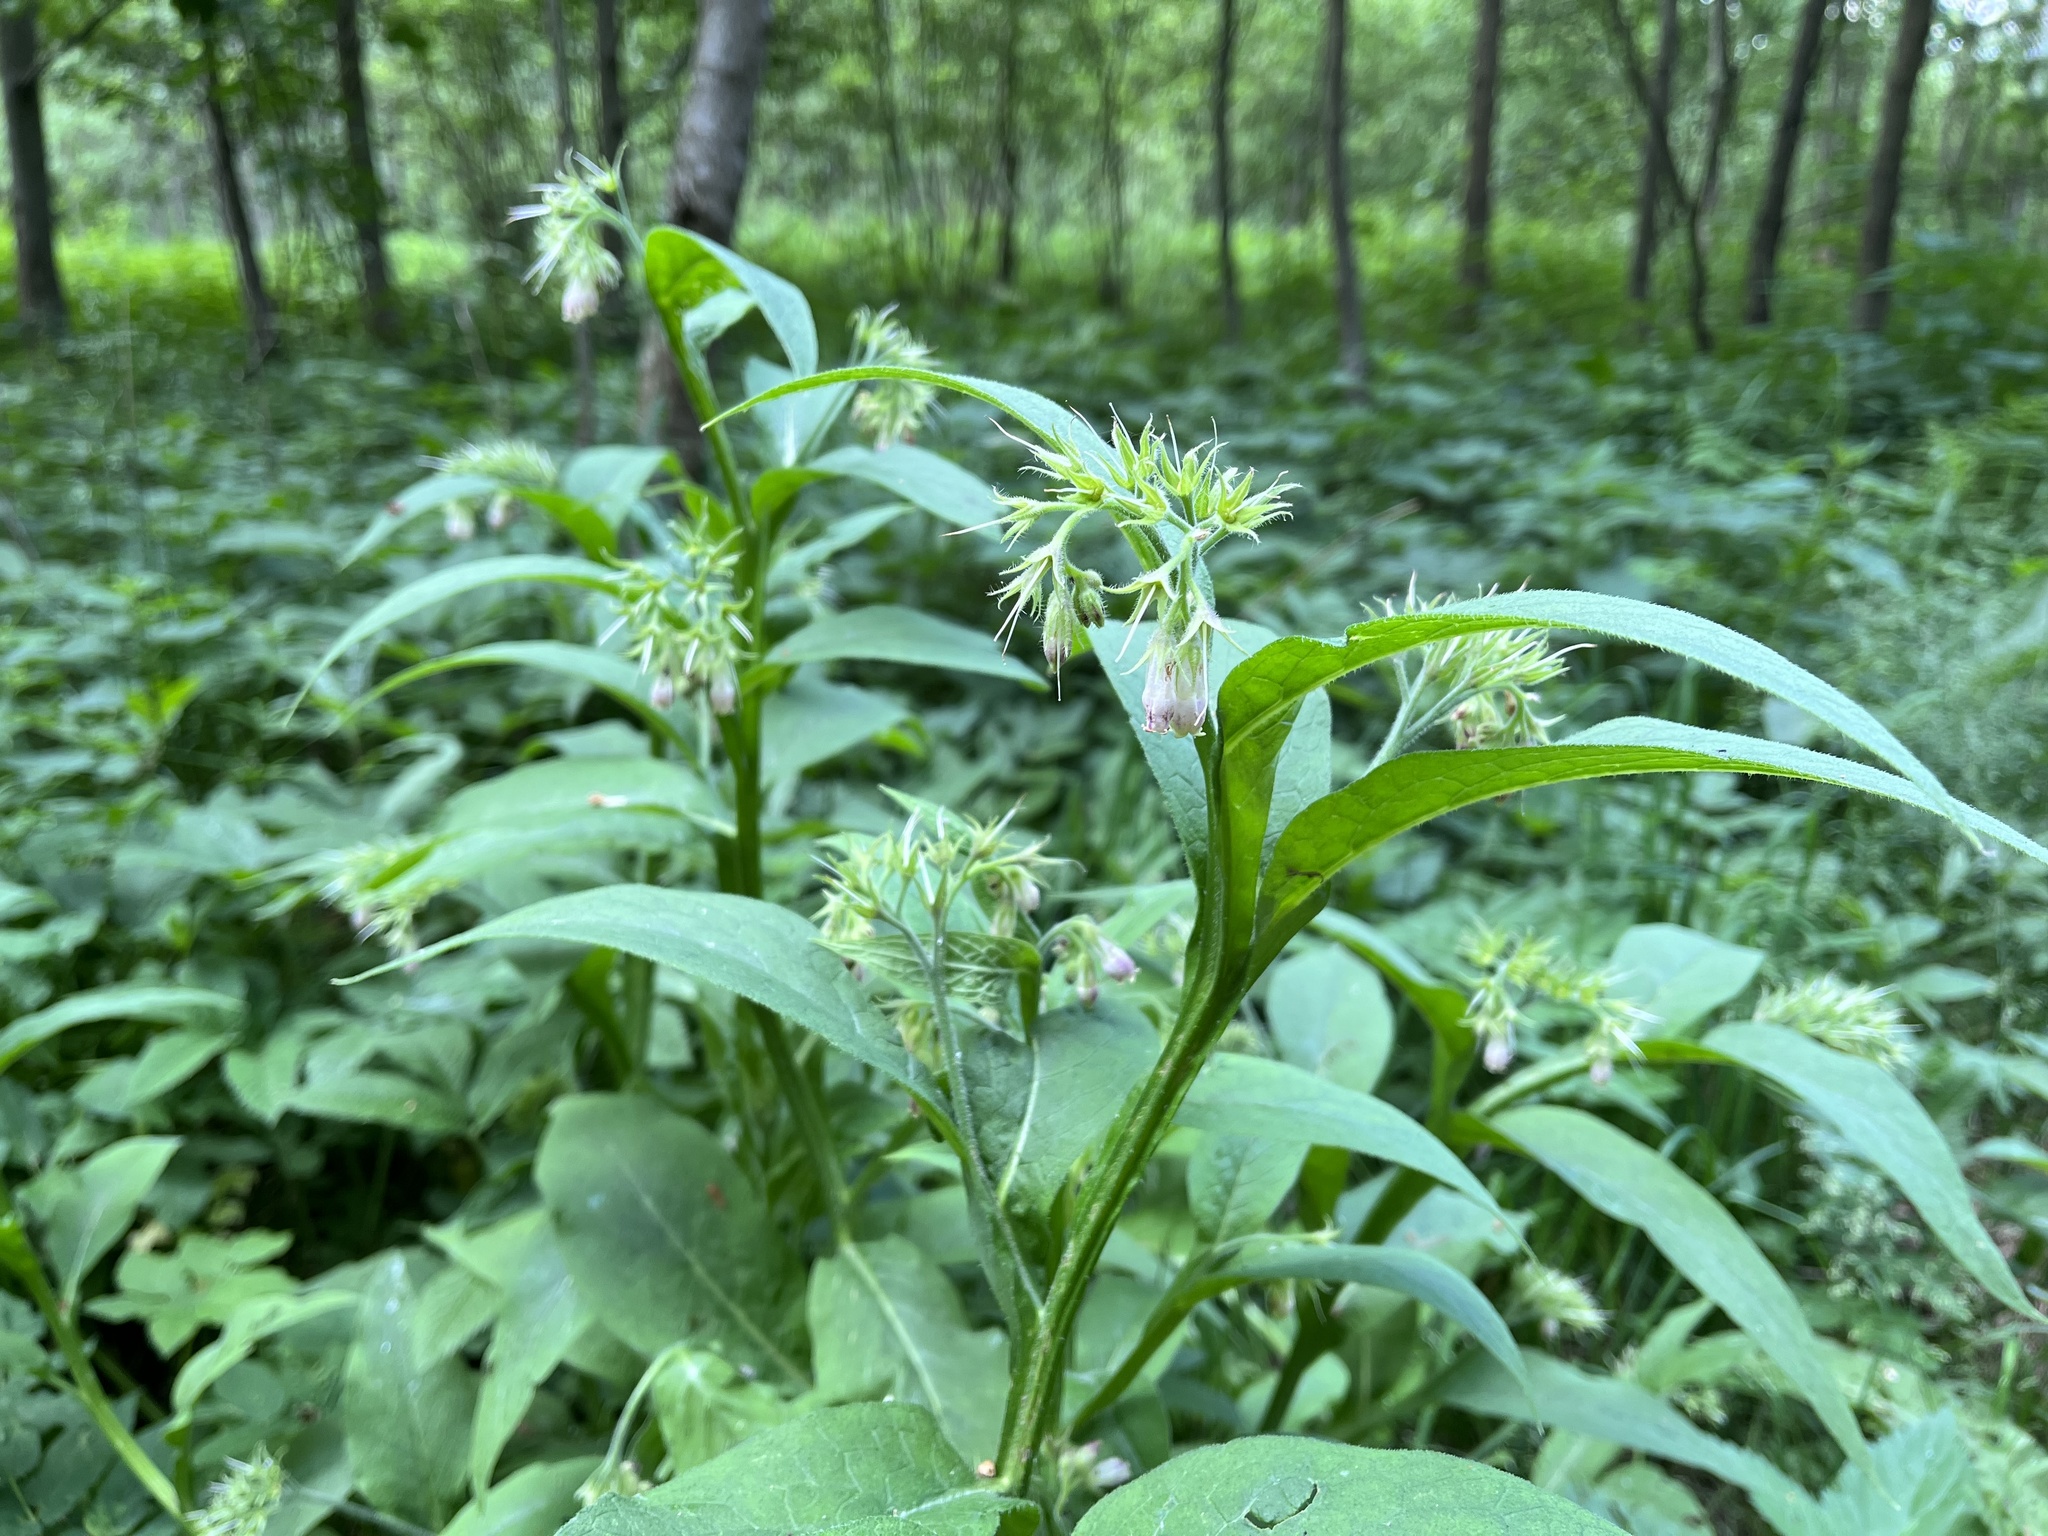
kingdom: Plantae
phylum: Tracheophyta
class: Magnoliopsida
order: Boraginales
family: Boraginaceae
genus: Symphytum
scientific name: Symphytum officinale
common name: Common comfrey
